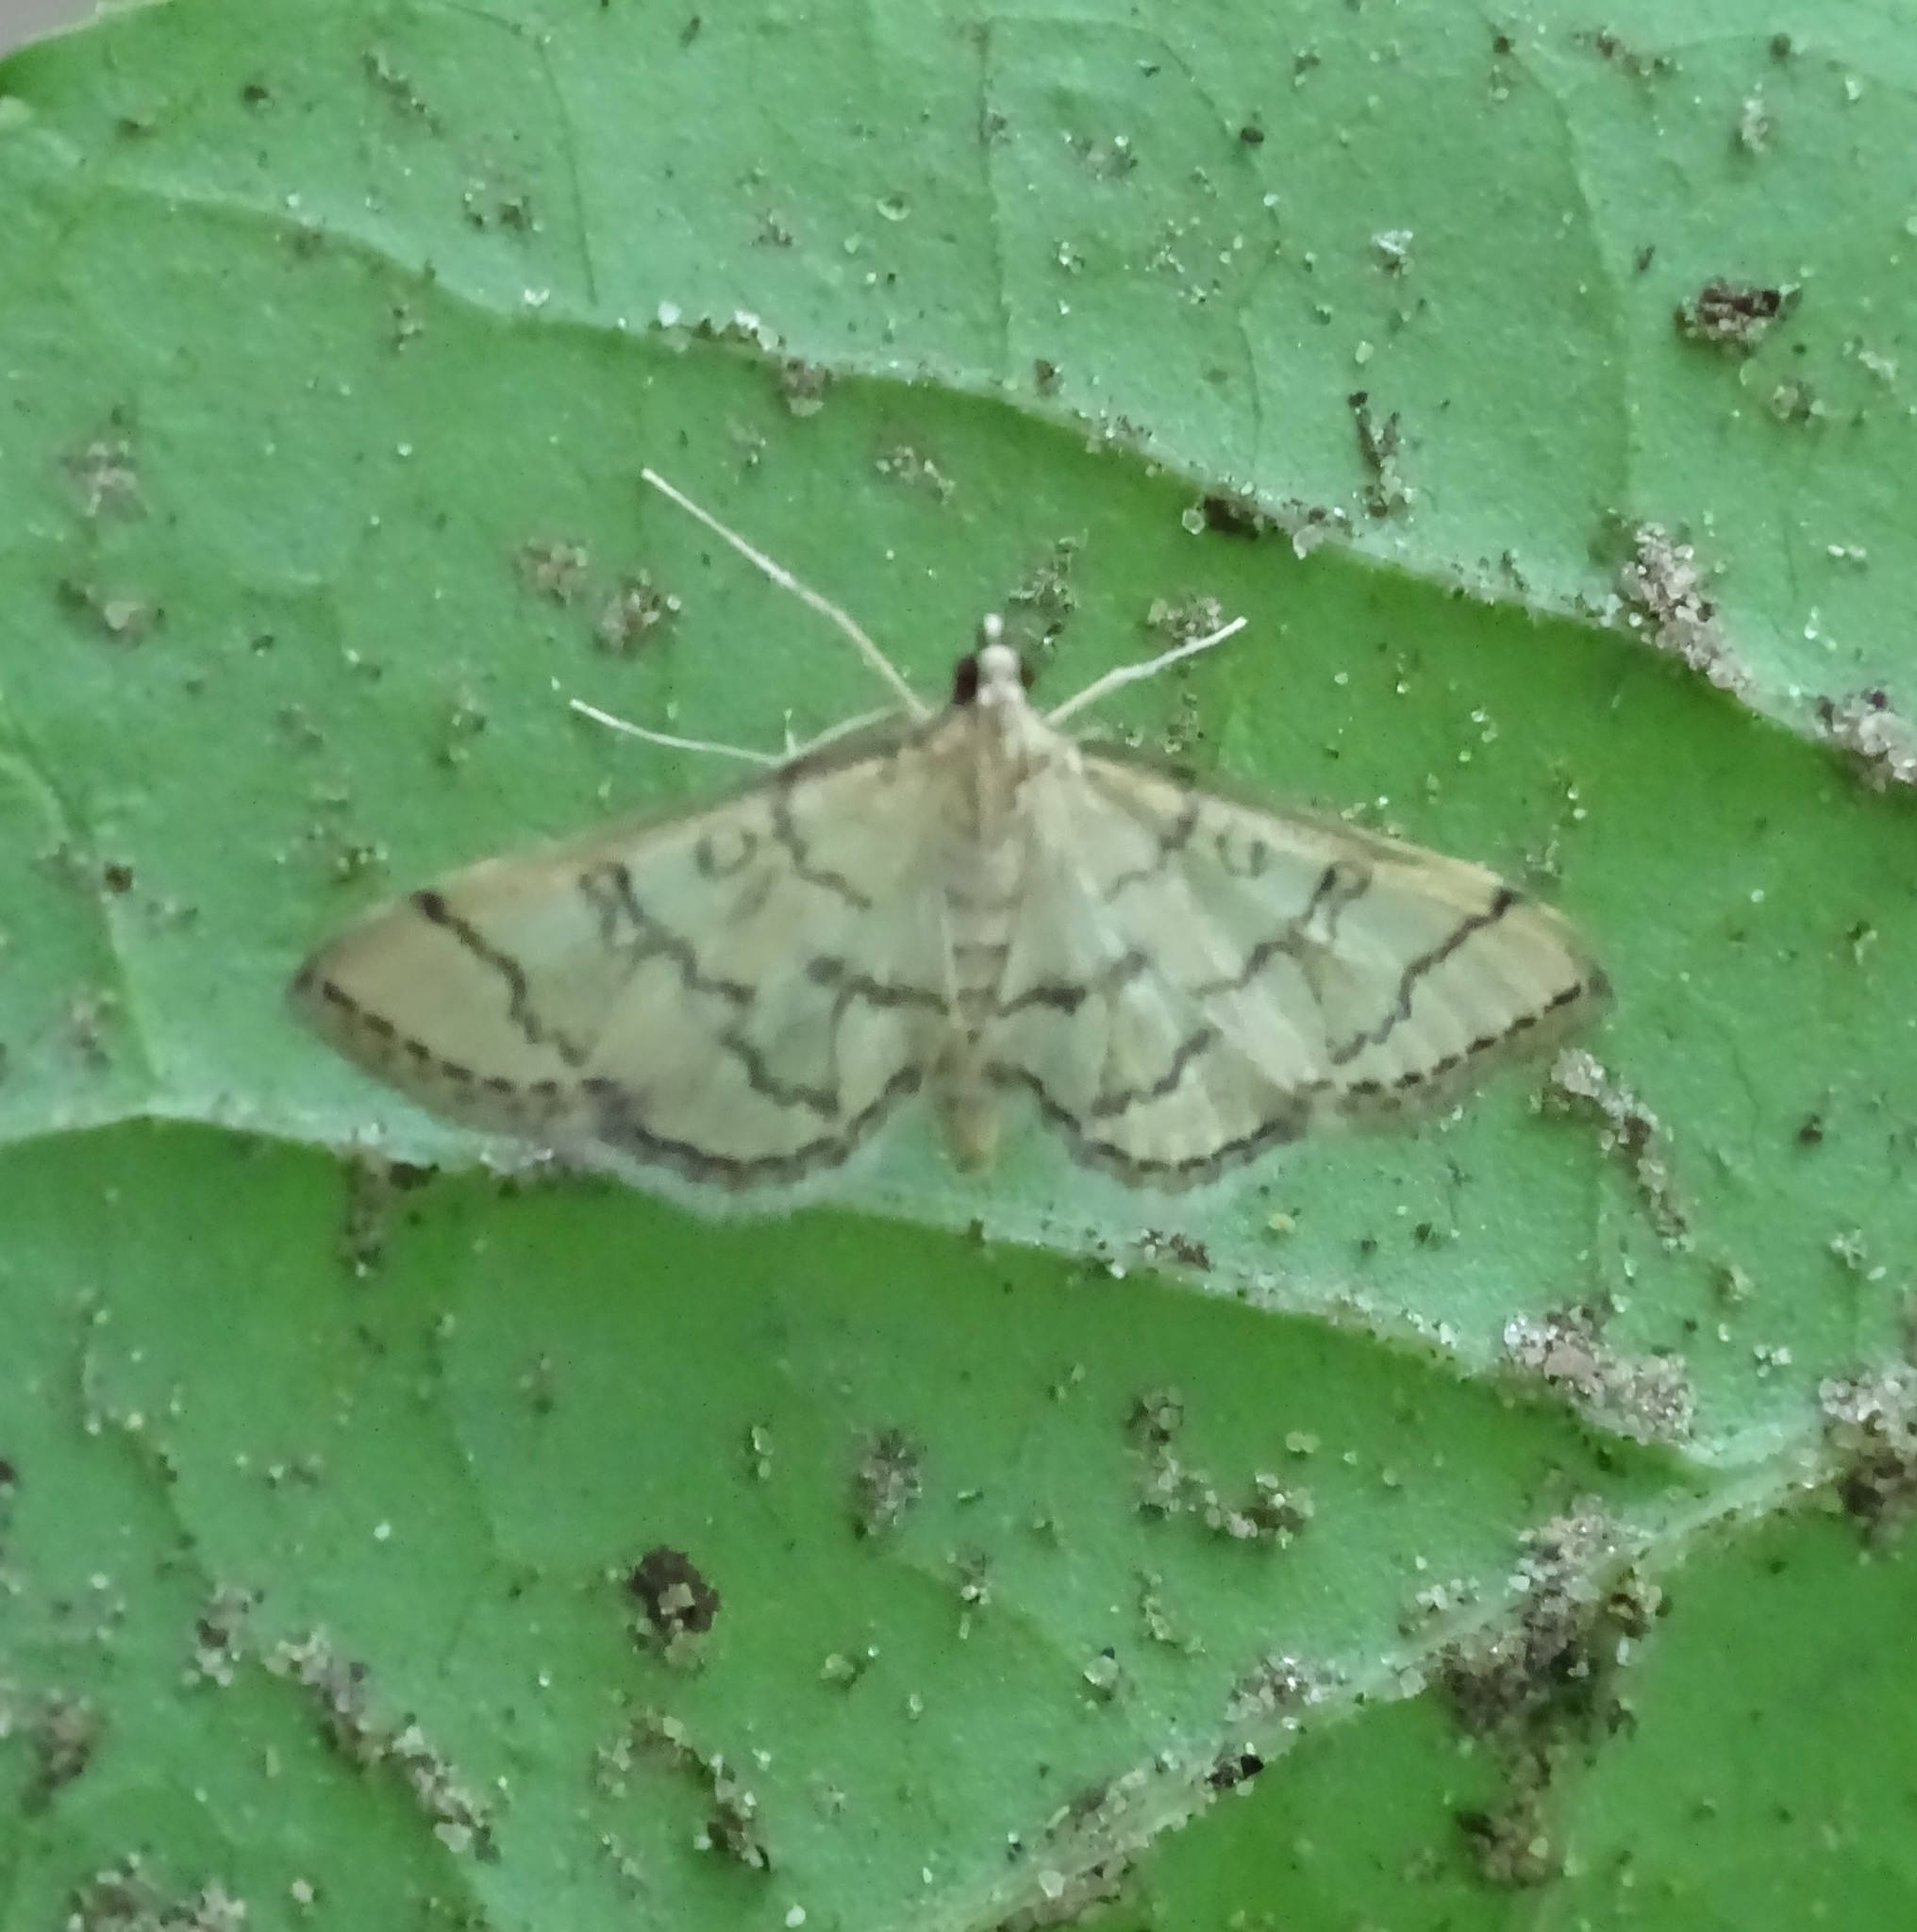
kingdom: Animalia
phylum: Arthropoda
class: Insecta
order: Lepidoptera
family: Crambidae
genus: Lamprosema
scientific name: Lamprosema Blepharomastix ranalis
